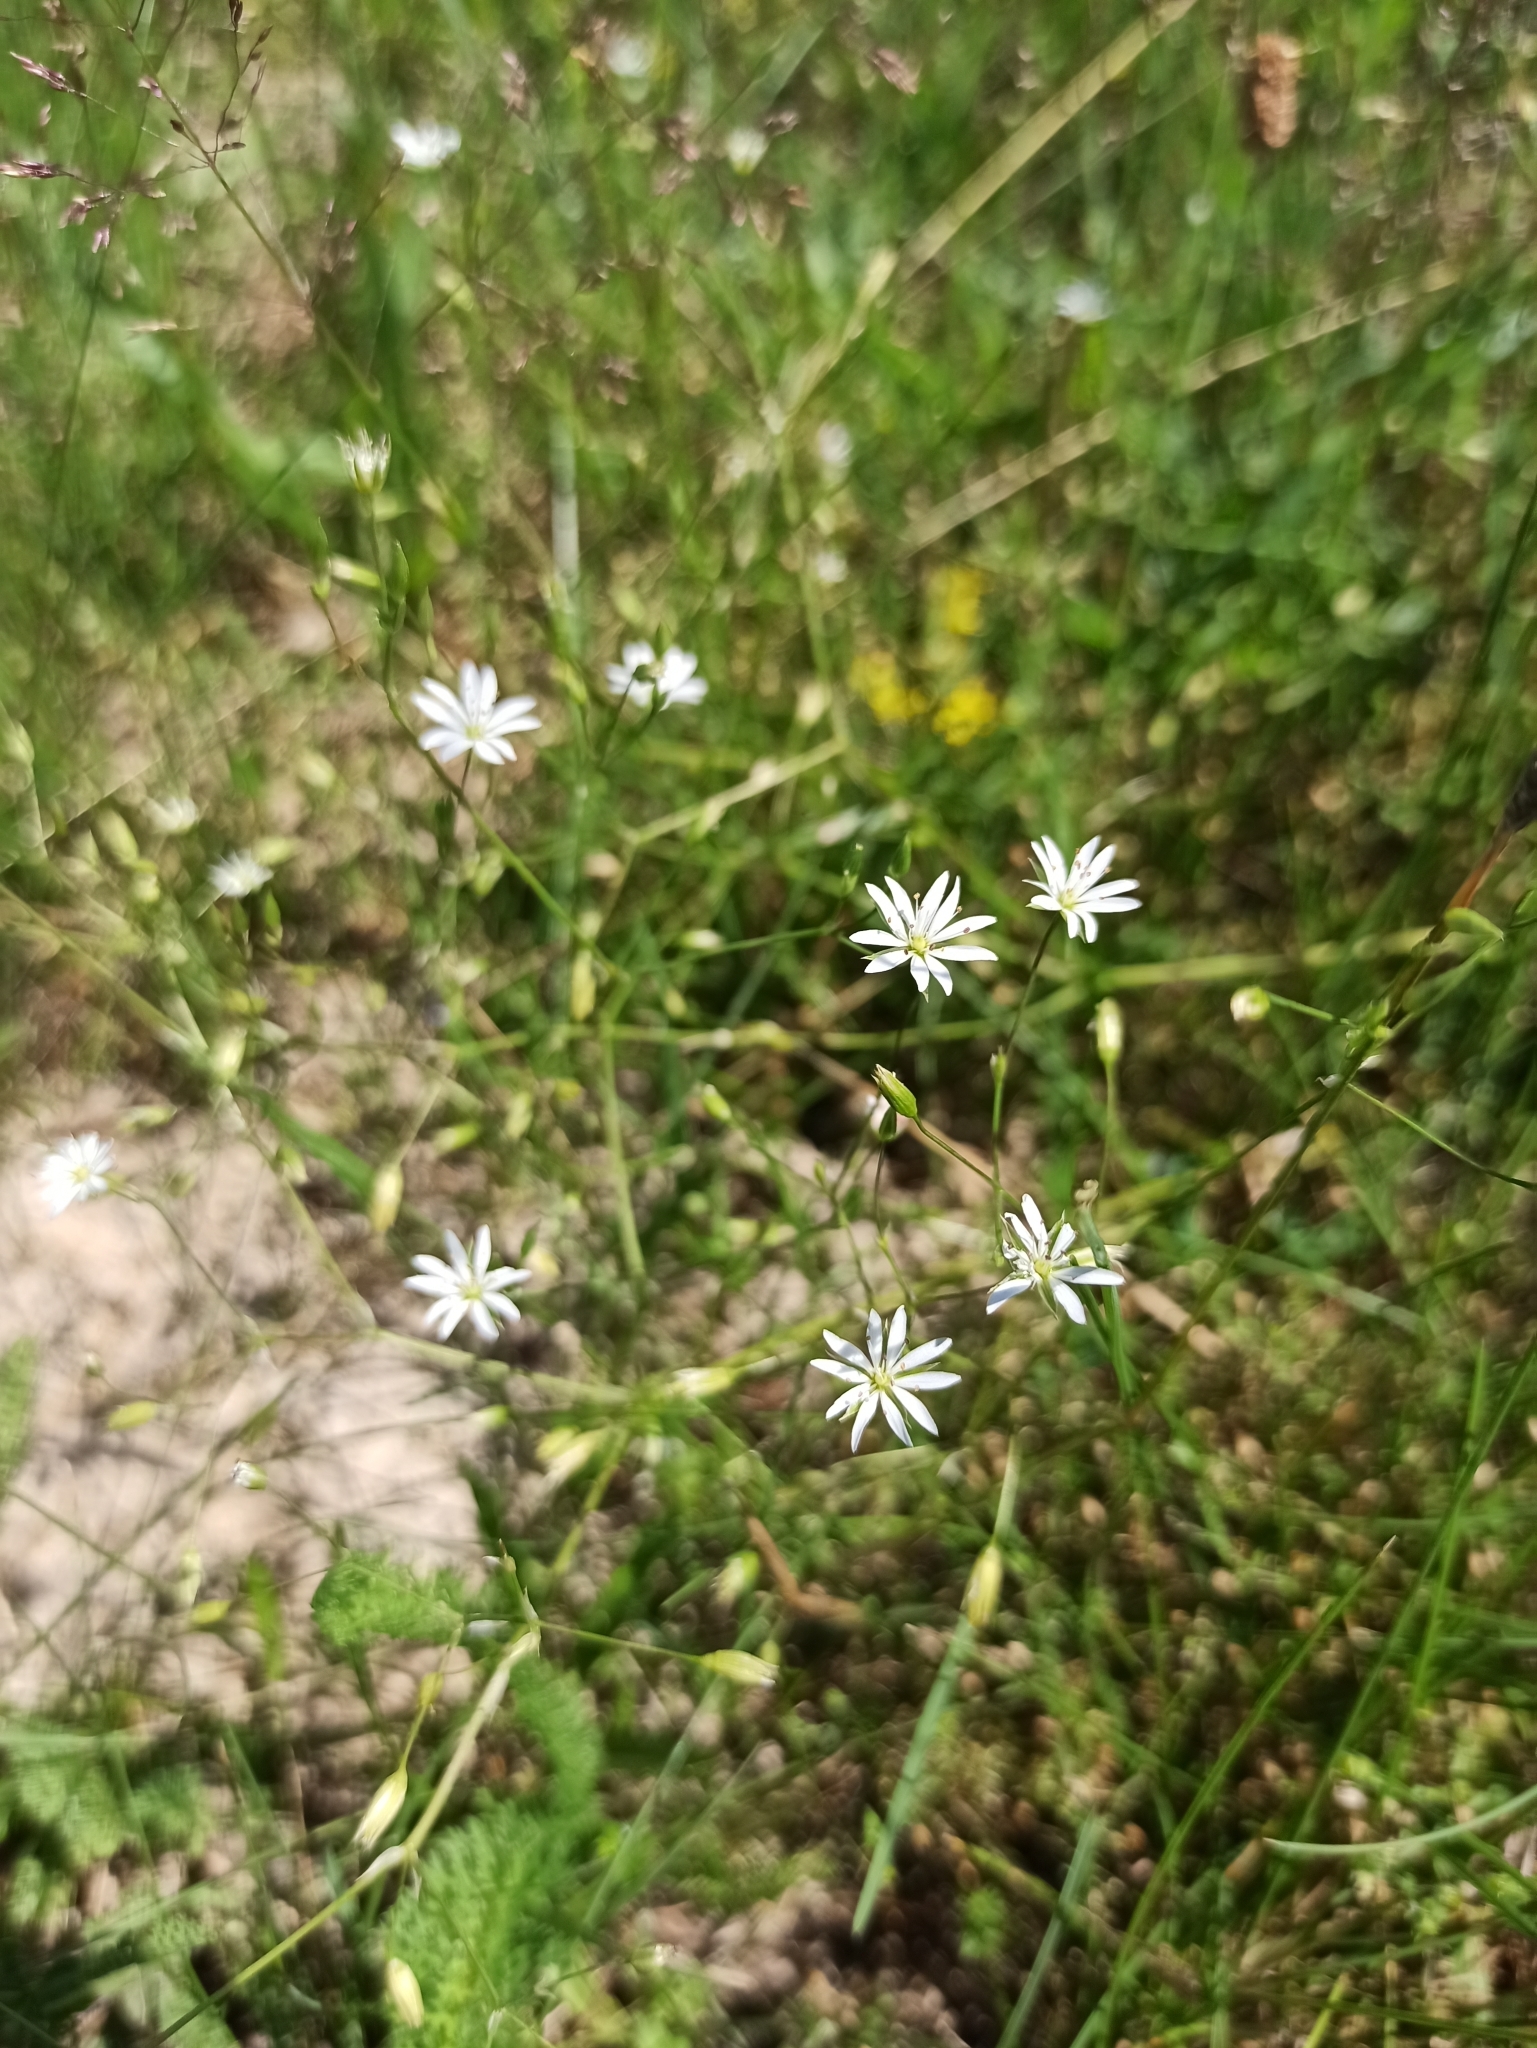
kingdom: Plantae
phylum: Tracheophyta
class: Magnoliopsida
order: Caryophyllales
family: Caryophyllaceae
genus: Stellaria
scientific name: Stellaria graminea
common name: Grass-like starwort
